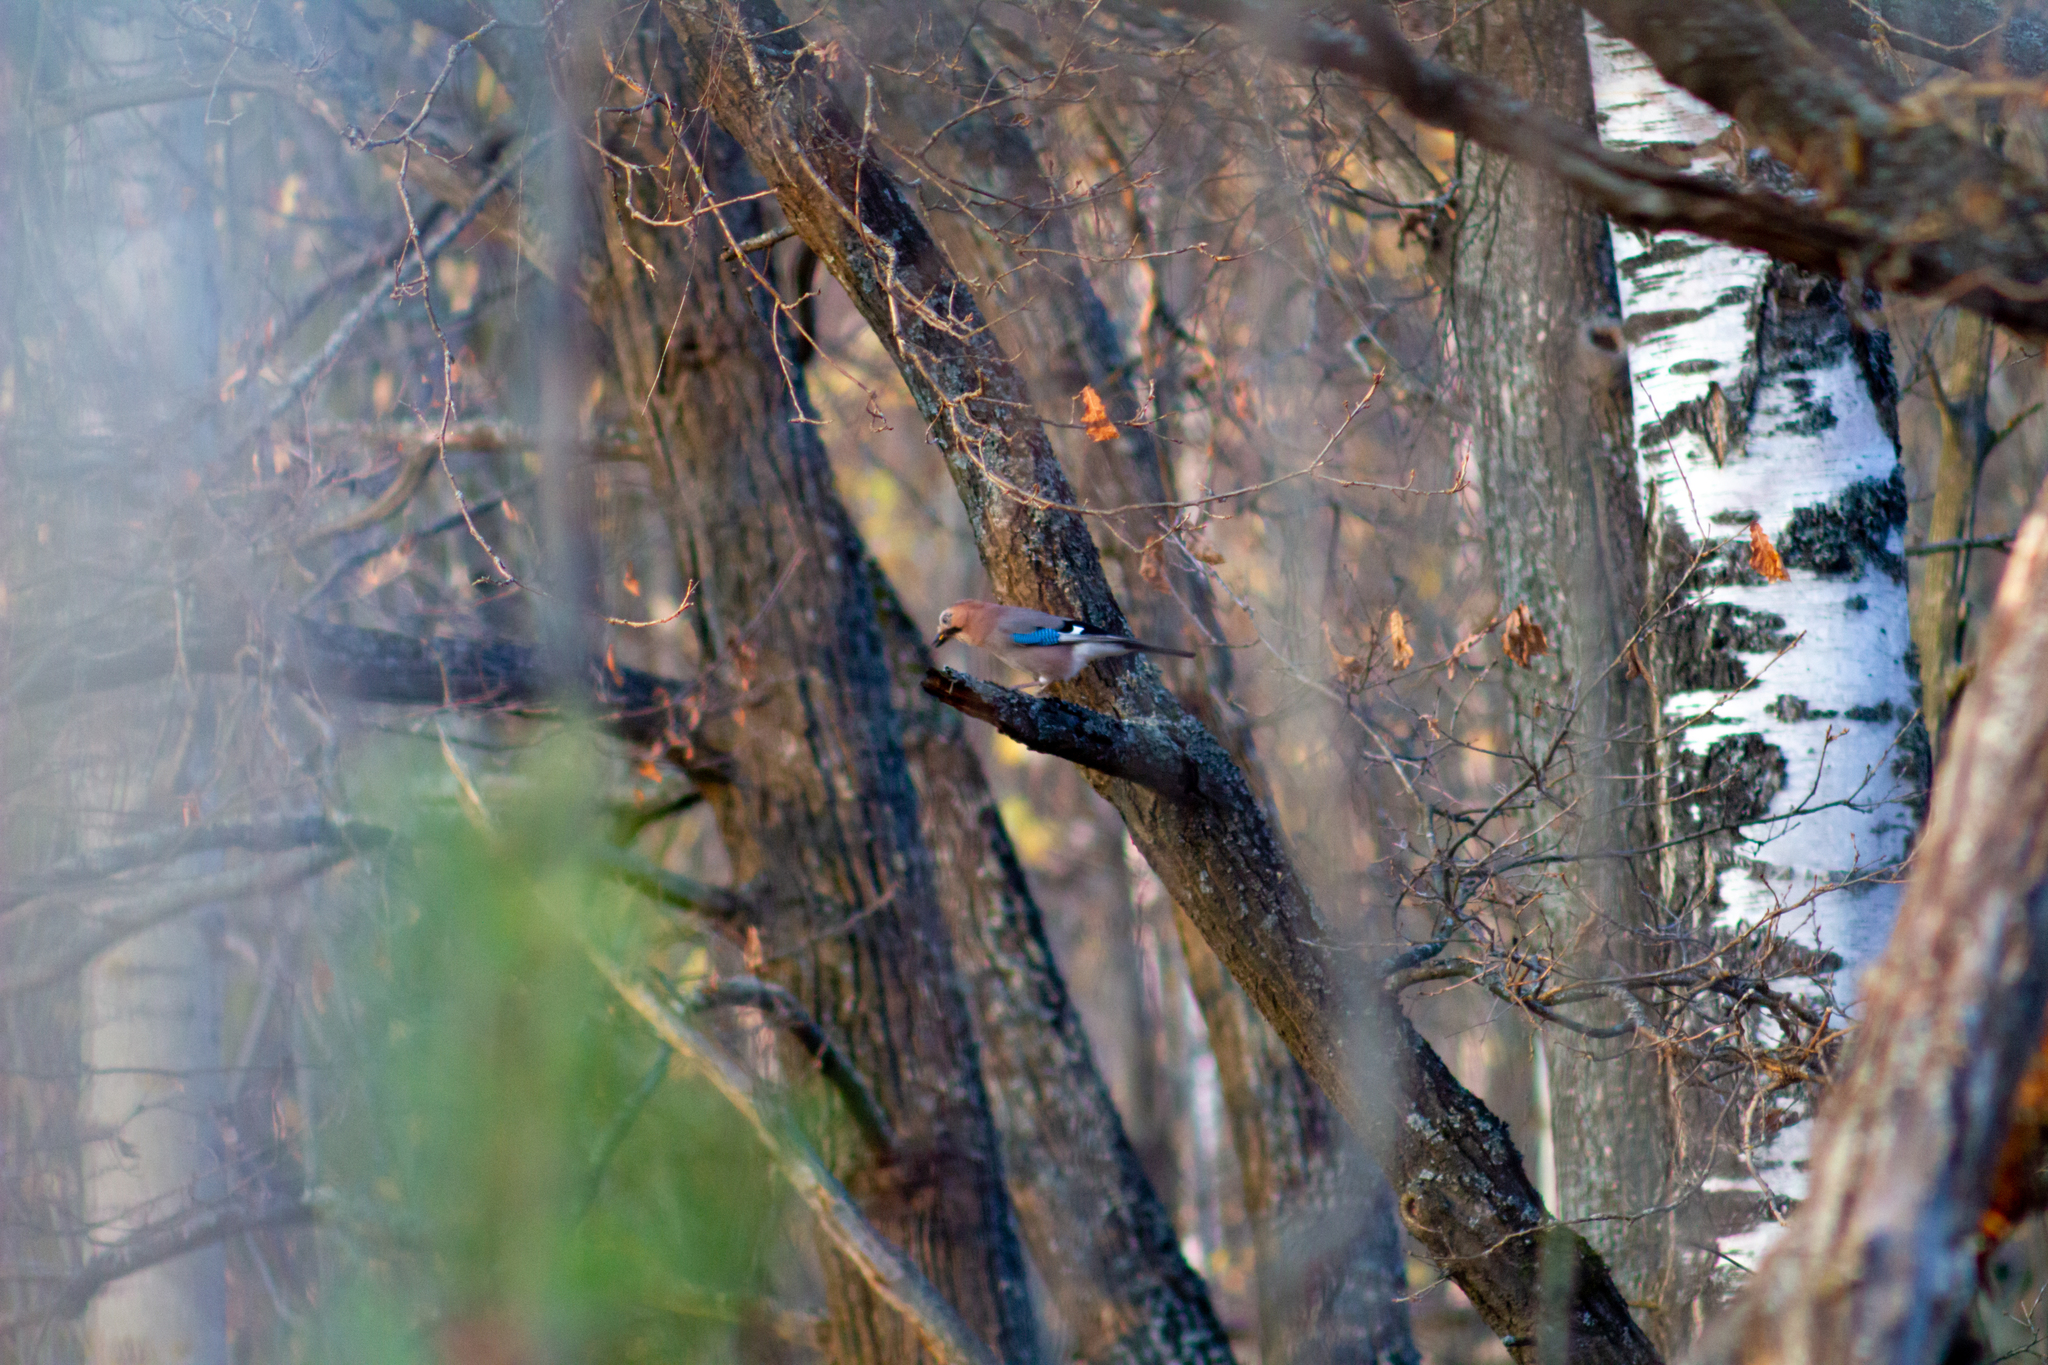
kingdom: Animalia
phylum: Chordata
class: Aves
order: Passeriformes
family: Corvidae
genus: Garrulus
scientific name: Garrulus glandarius
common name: Eurasian jay
